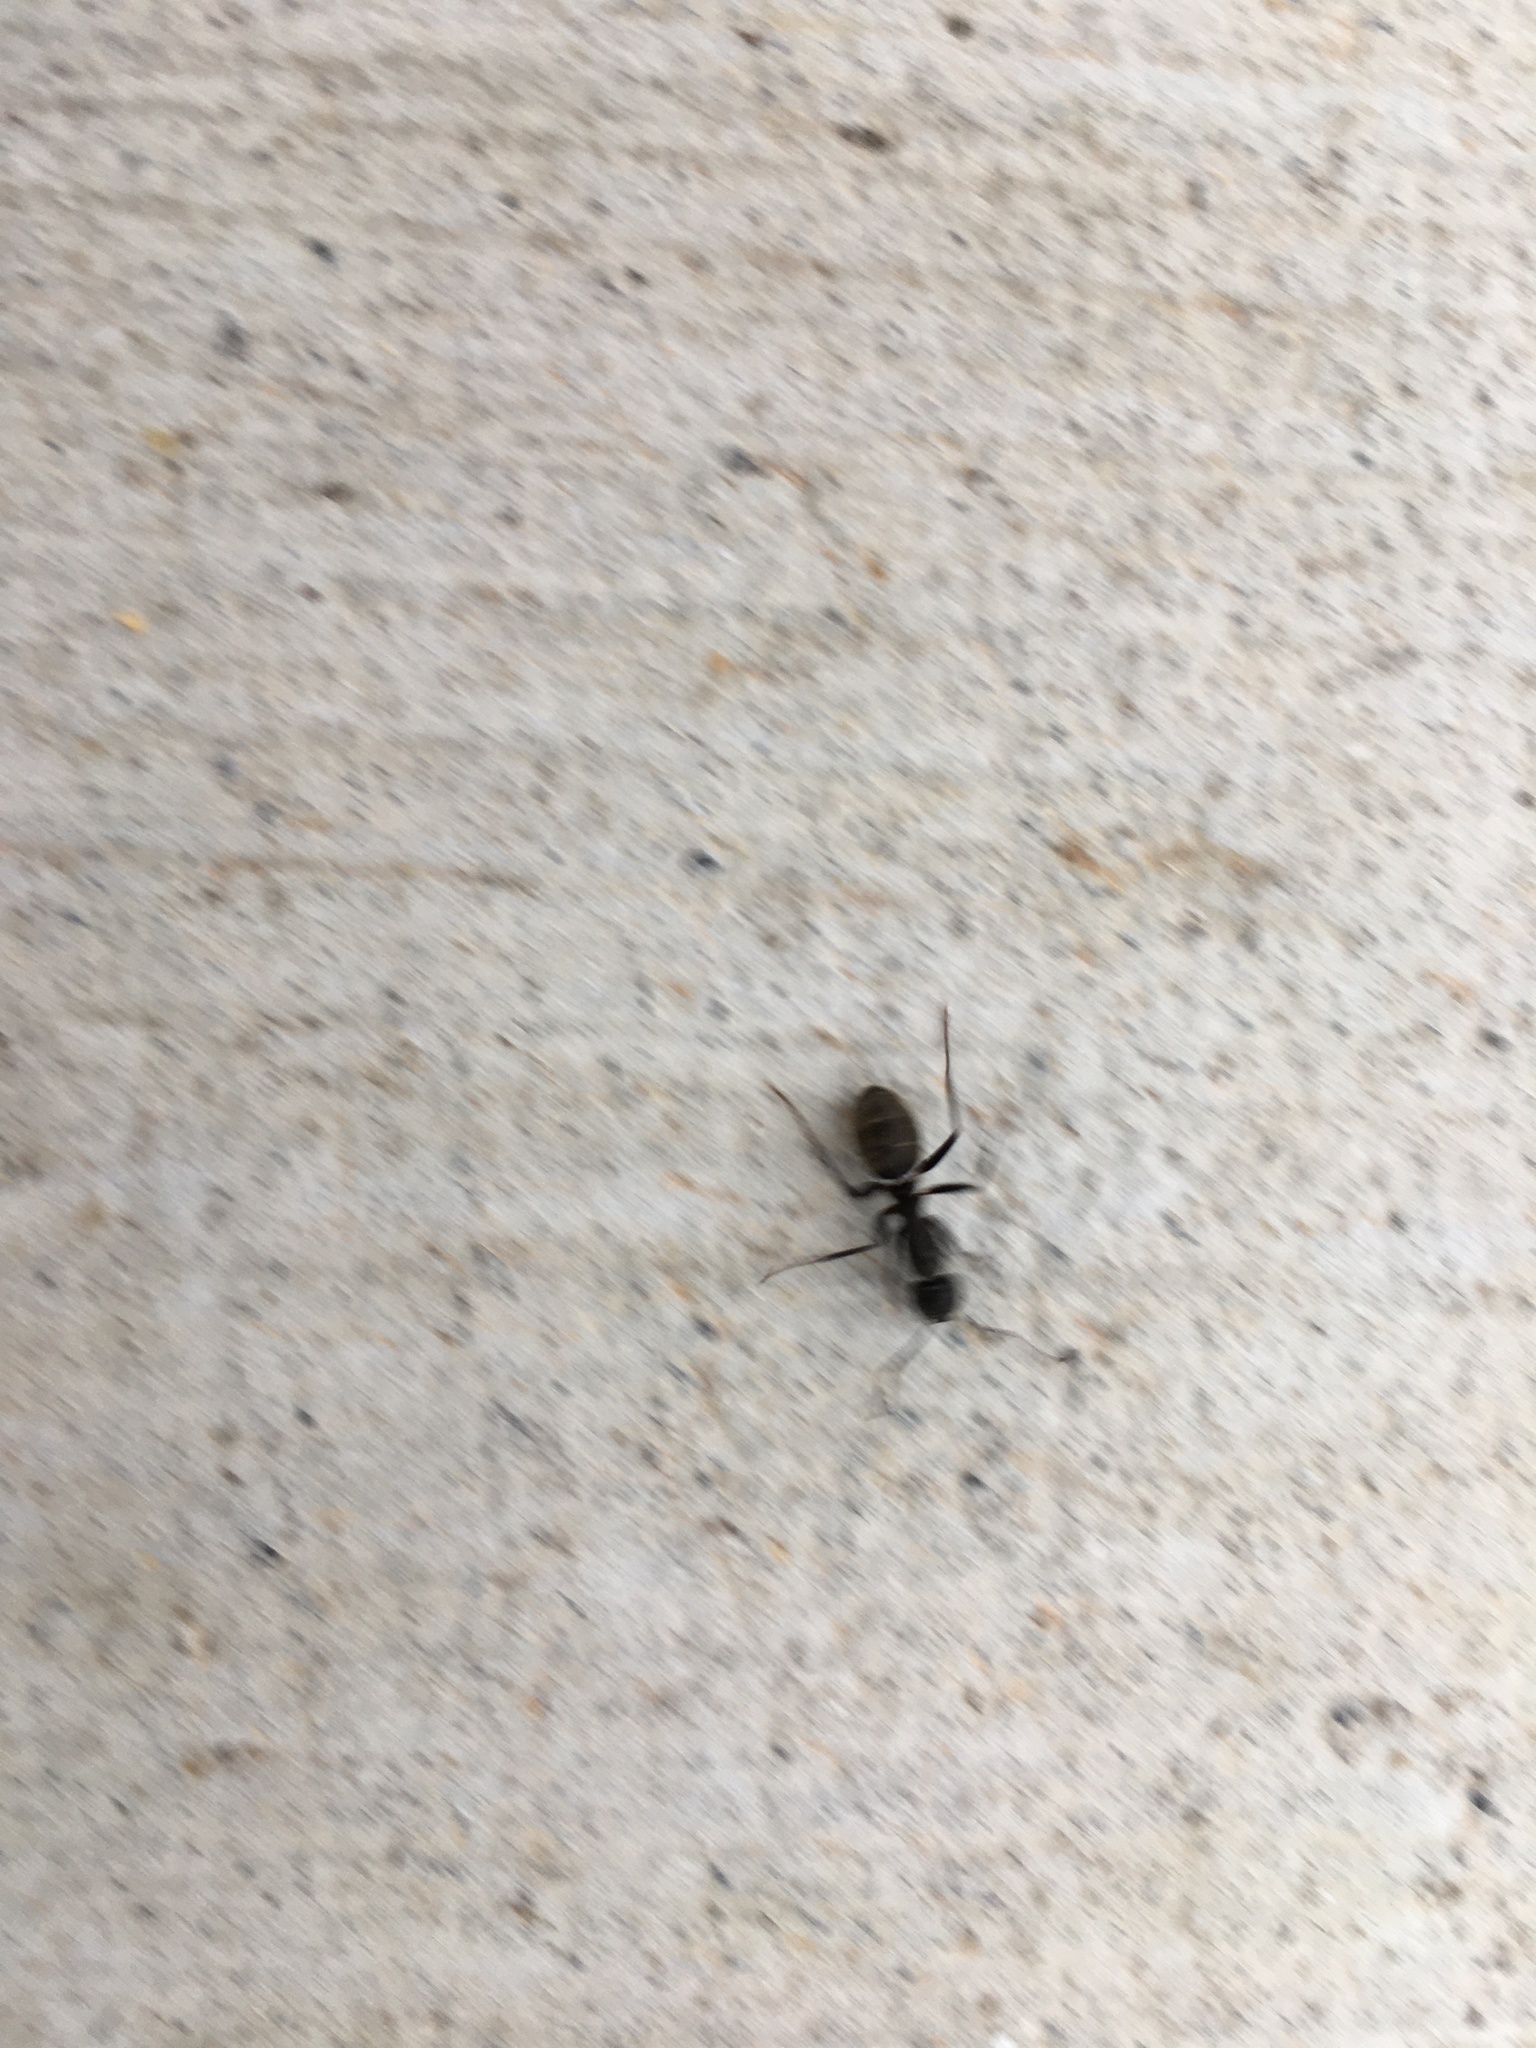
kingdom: Animalia
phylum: Arthropoda
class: Insecta
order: Hymenoptera
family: Formicidae
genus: Camponotus
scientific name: Camponotus pennsylvanicus
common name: Black carpenter ant
